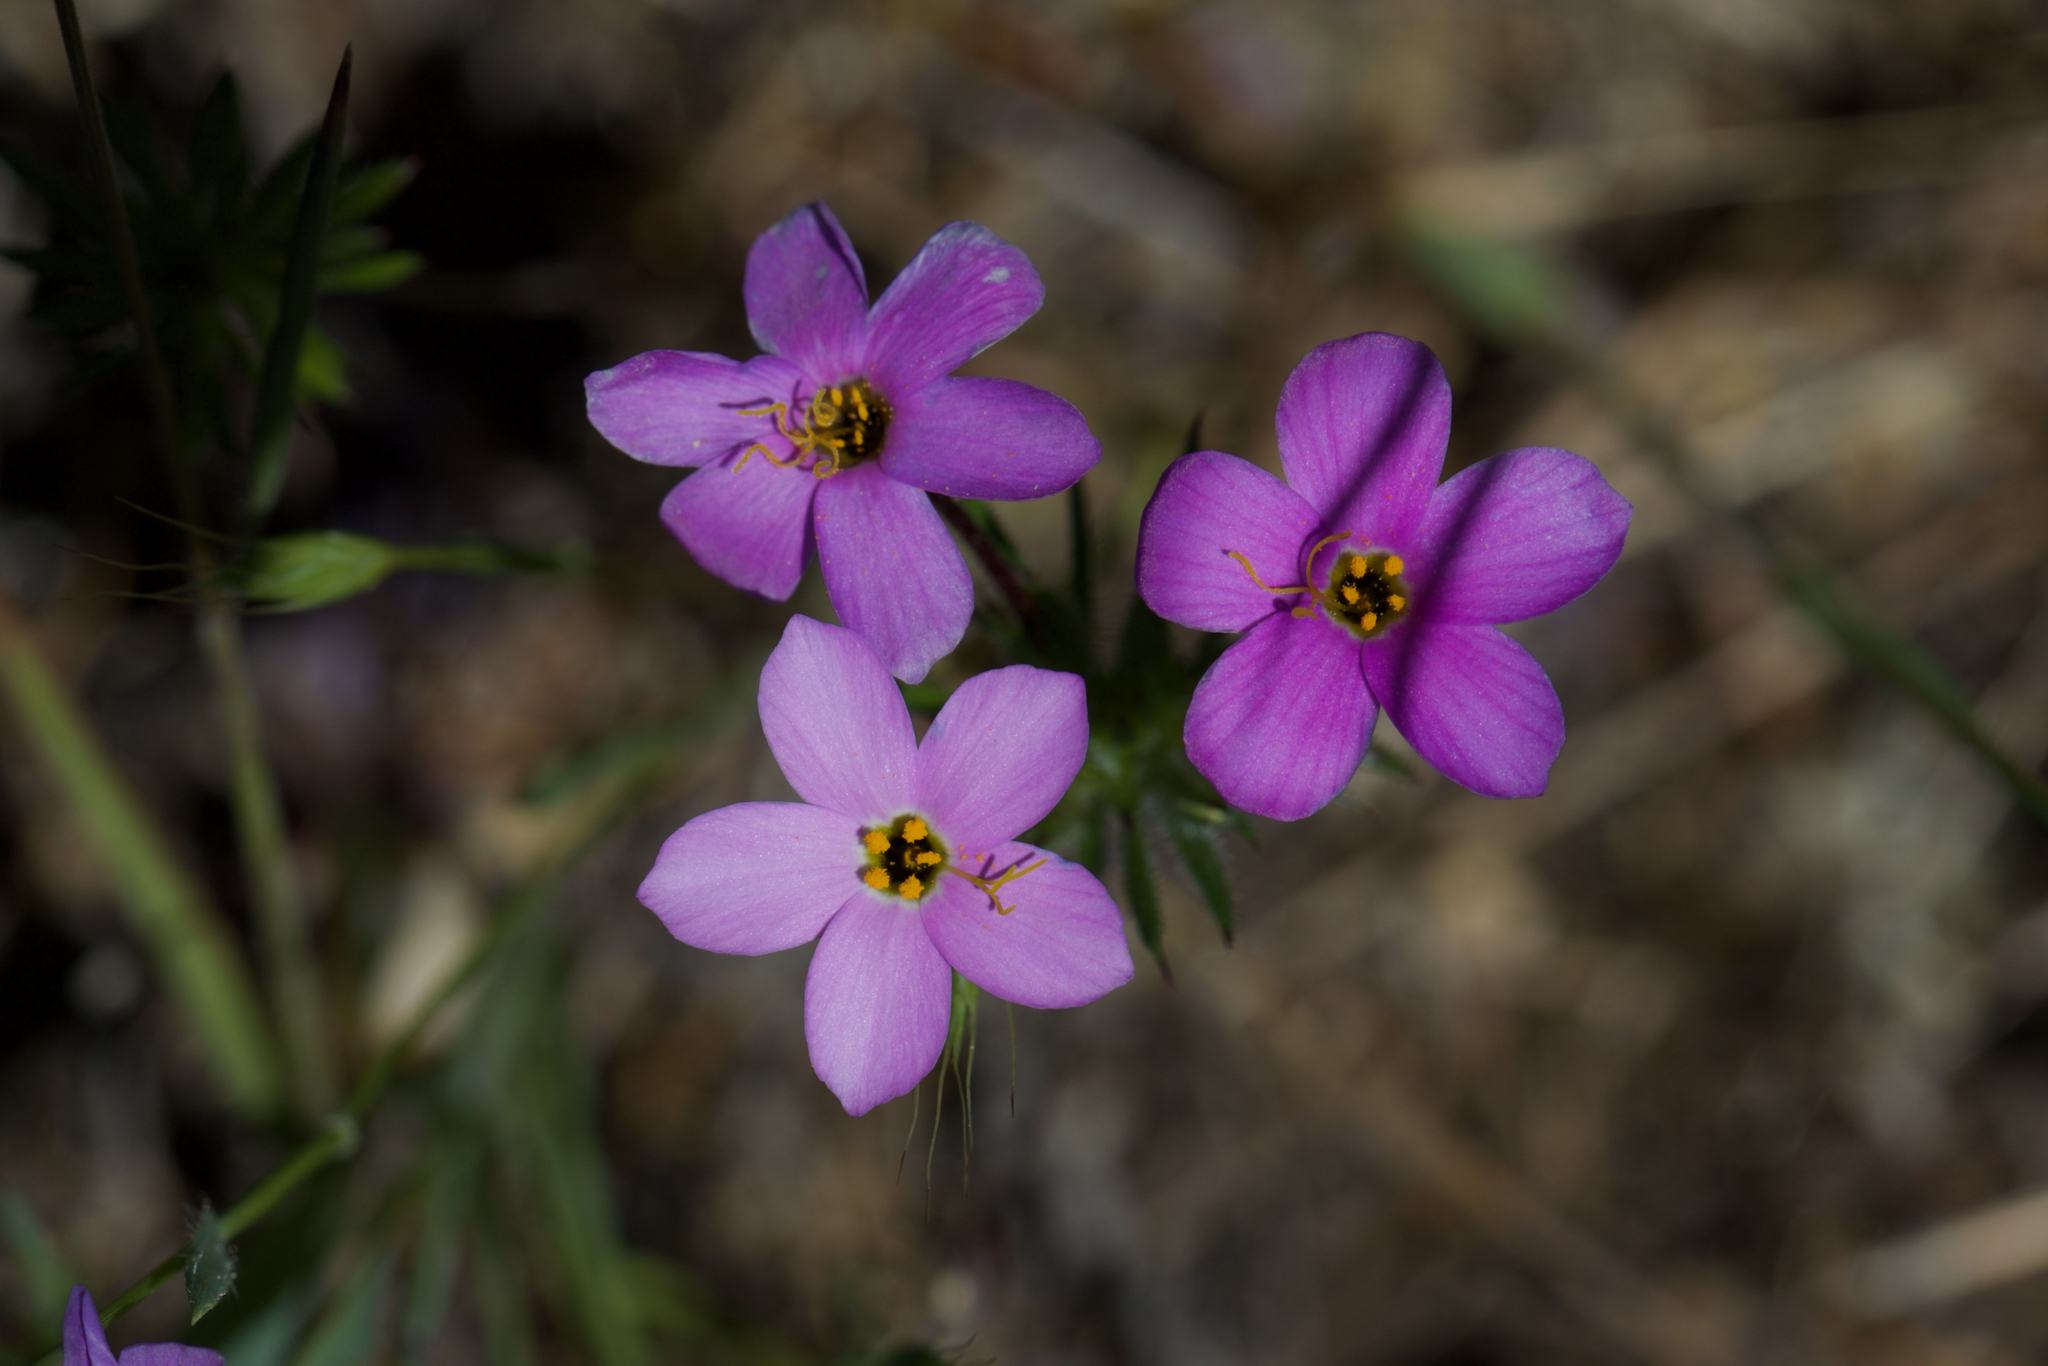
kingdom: Plantae
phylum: Tracheophyta
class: Magnoliopsida
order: Ericales
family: Polemoniaceae
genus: Leptosiphon
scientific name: Leptosiphon androsaceus
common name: False babystars
